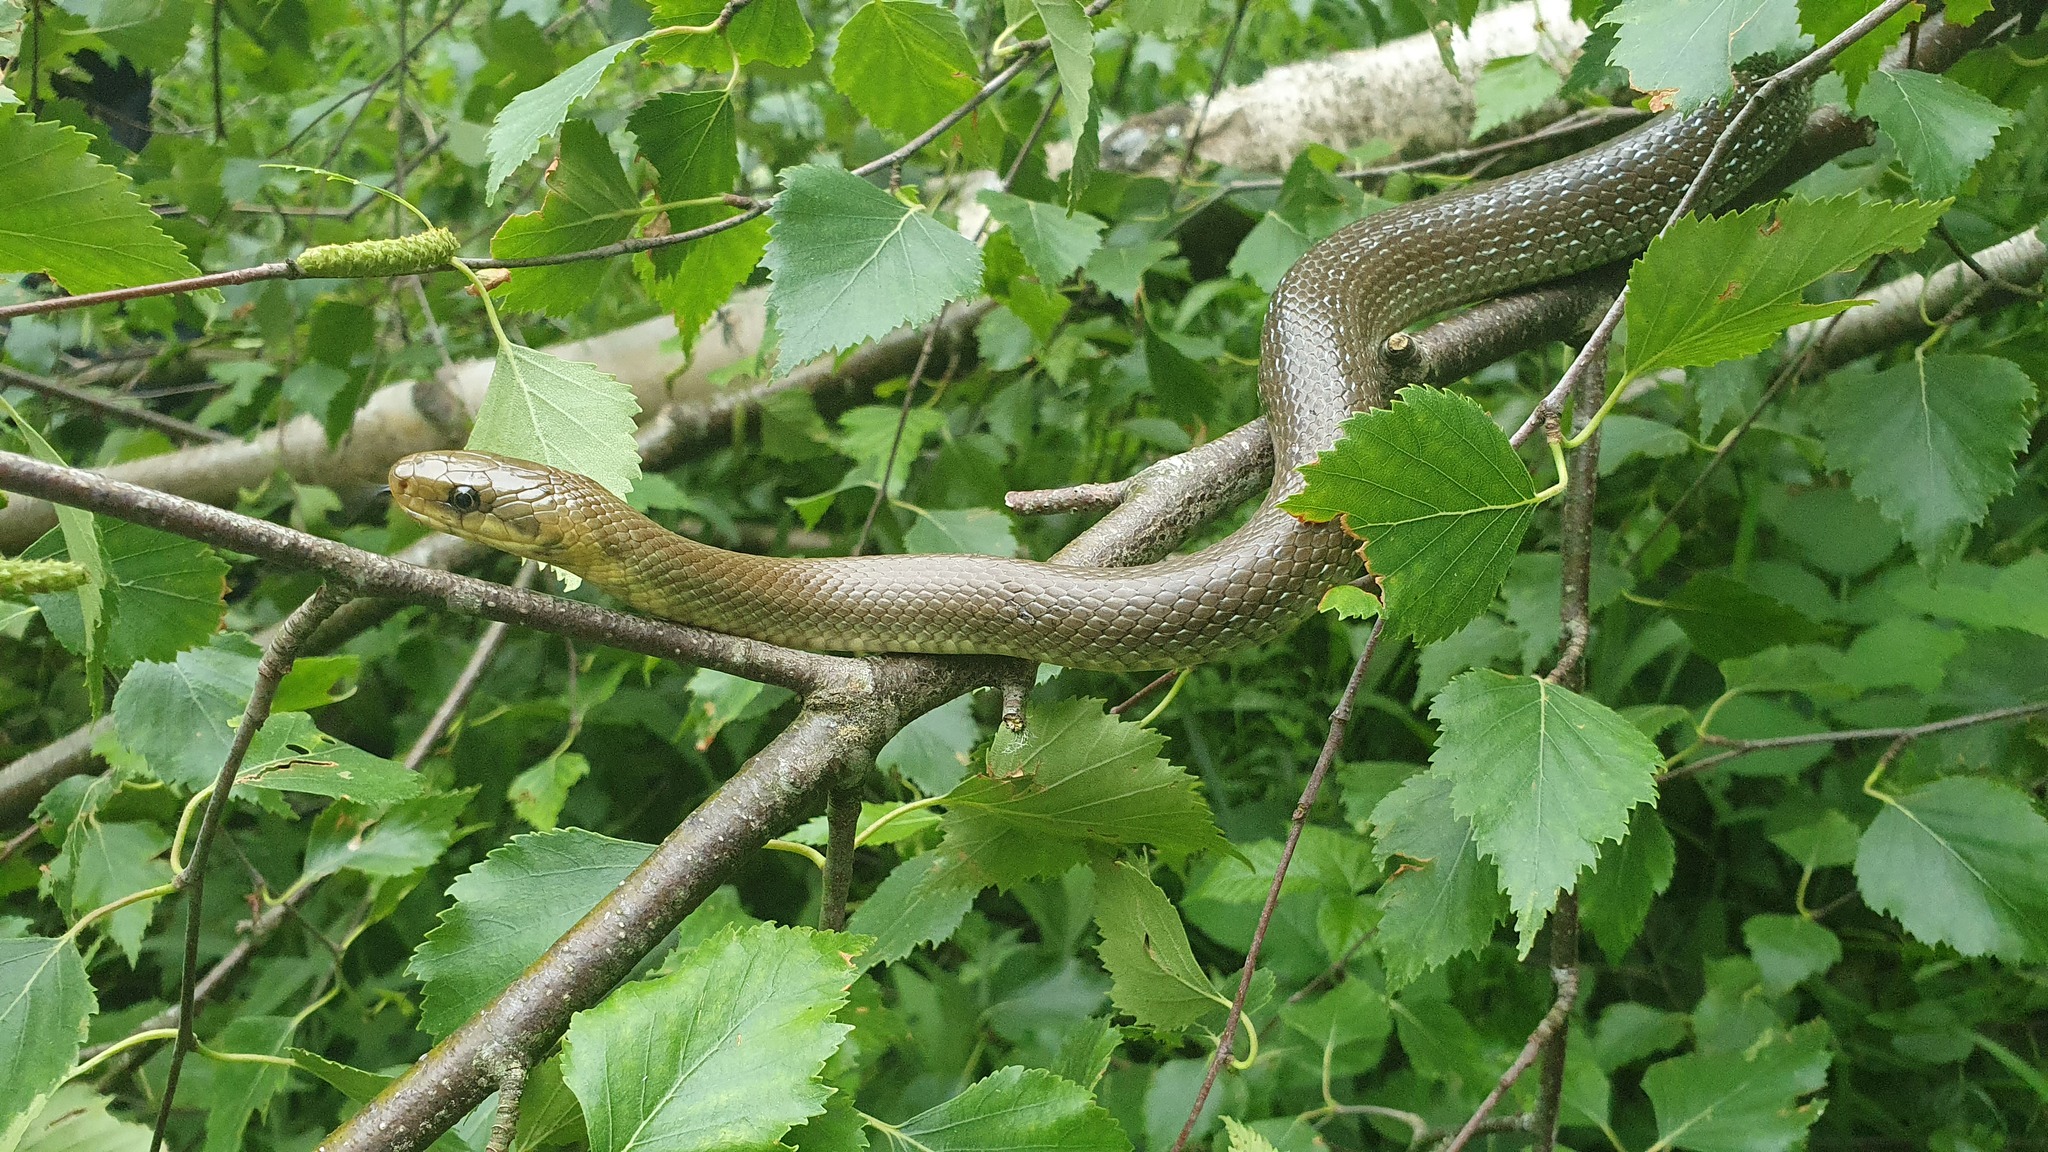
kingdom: Animalia
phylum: Chordata
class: Squamata
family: Colubridae
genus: Zamenis
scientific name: Zamenis longissimus
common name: Aesculapean snake
